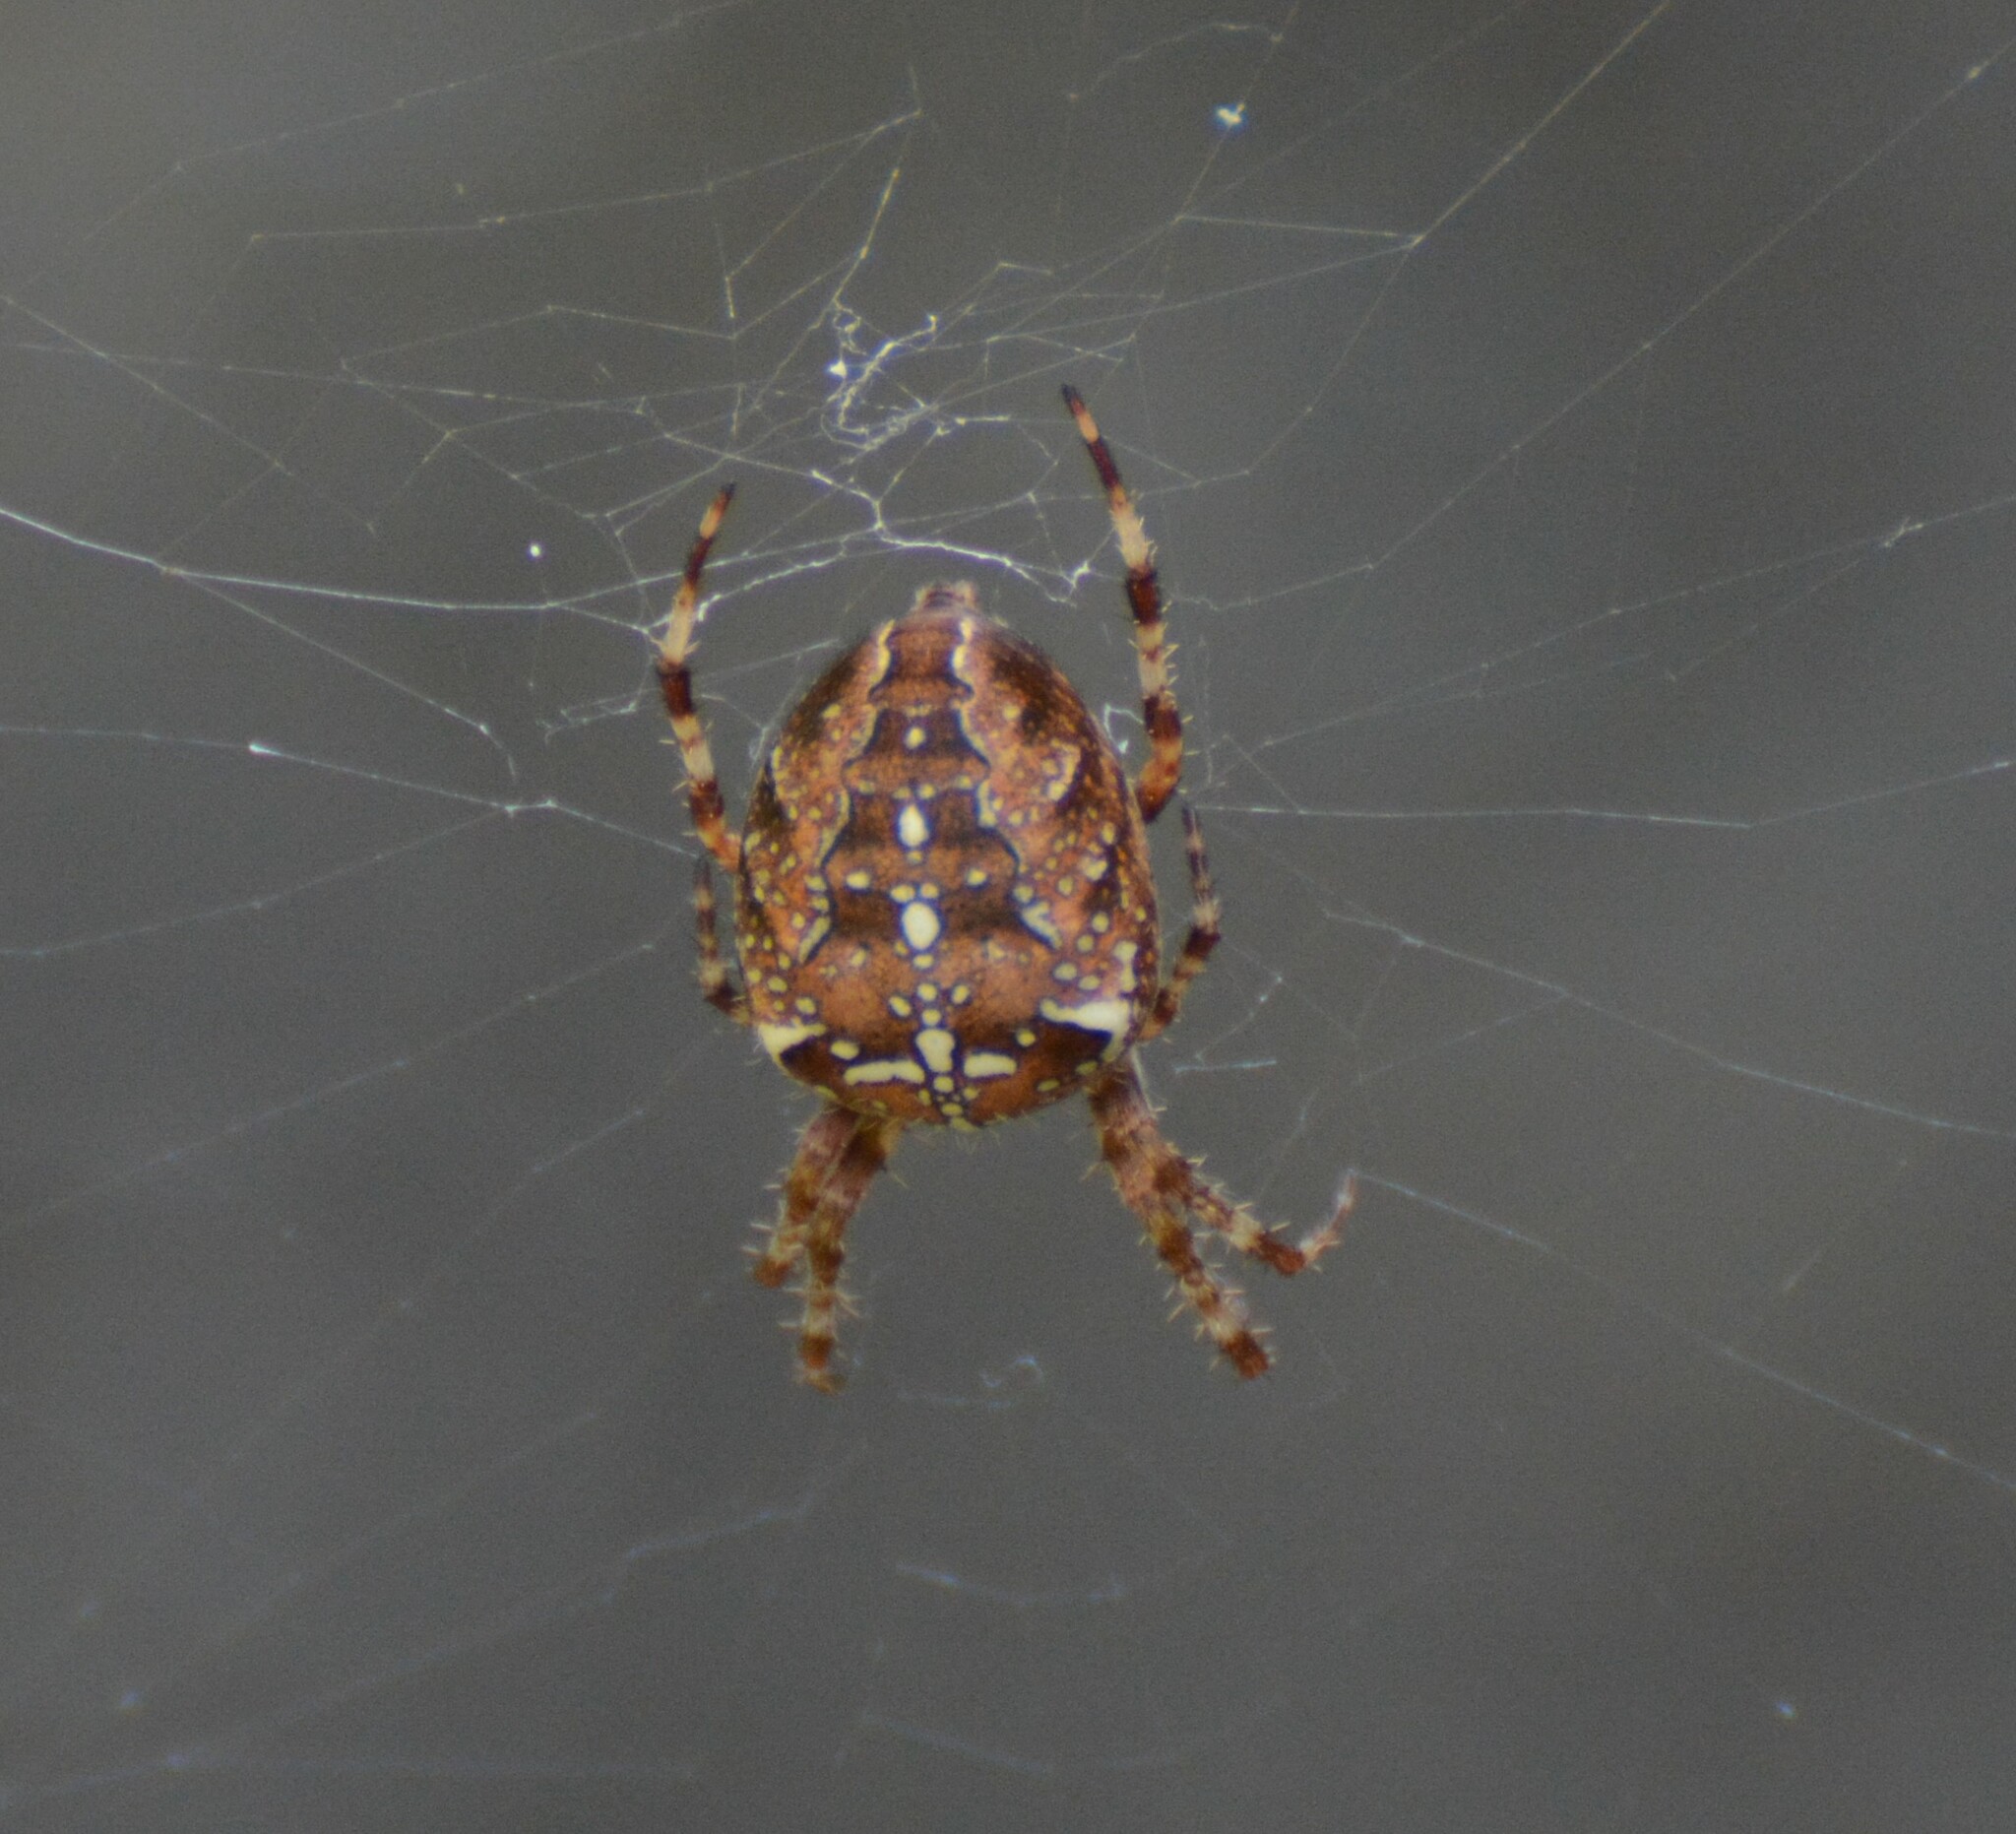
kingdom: Animalia
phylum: Arthropoda
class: Arachnida
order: Araneae
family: Araneidae
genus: Araneus
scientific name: Araneus diadematus
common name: Cross orbweaver
